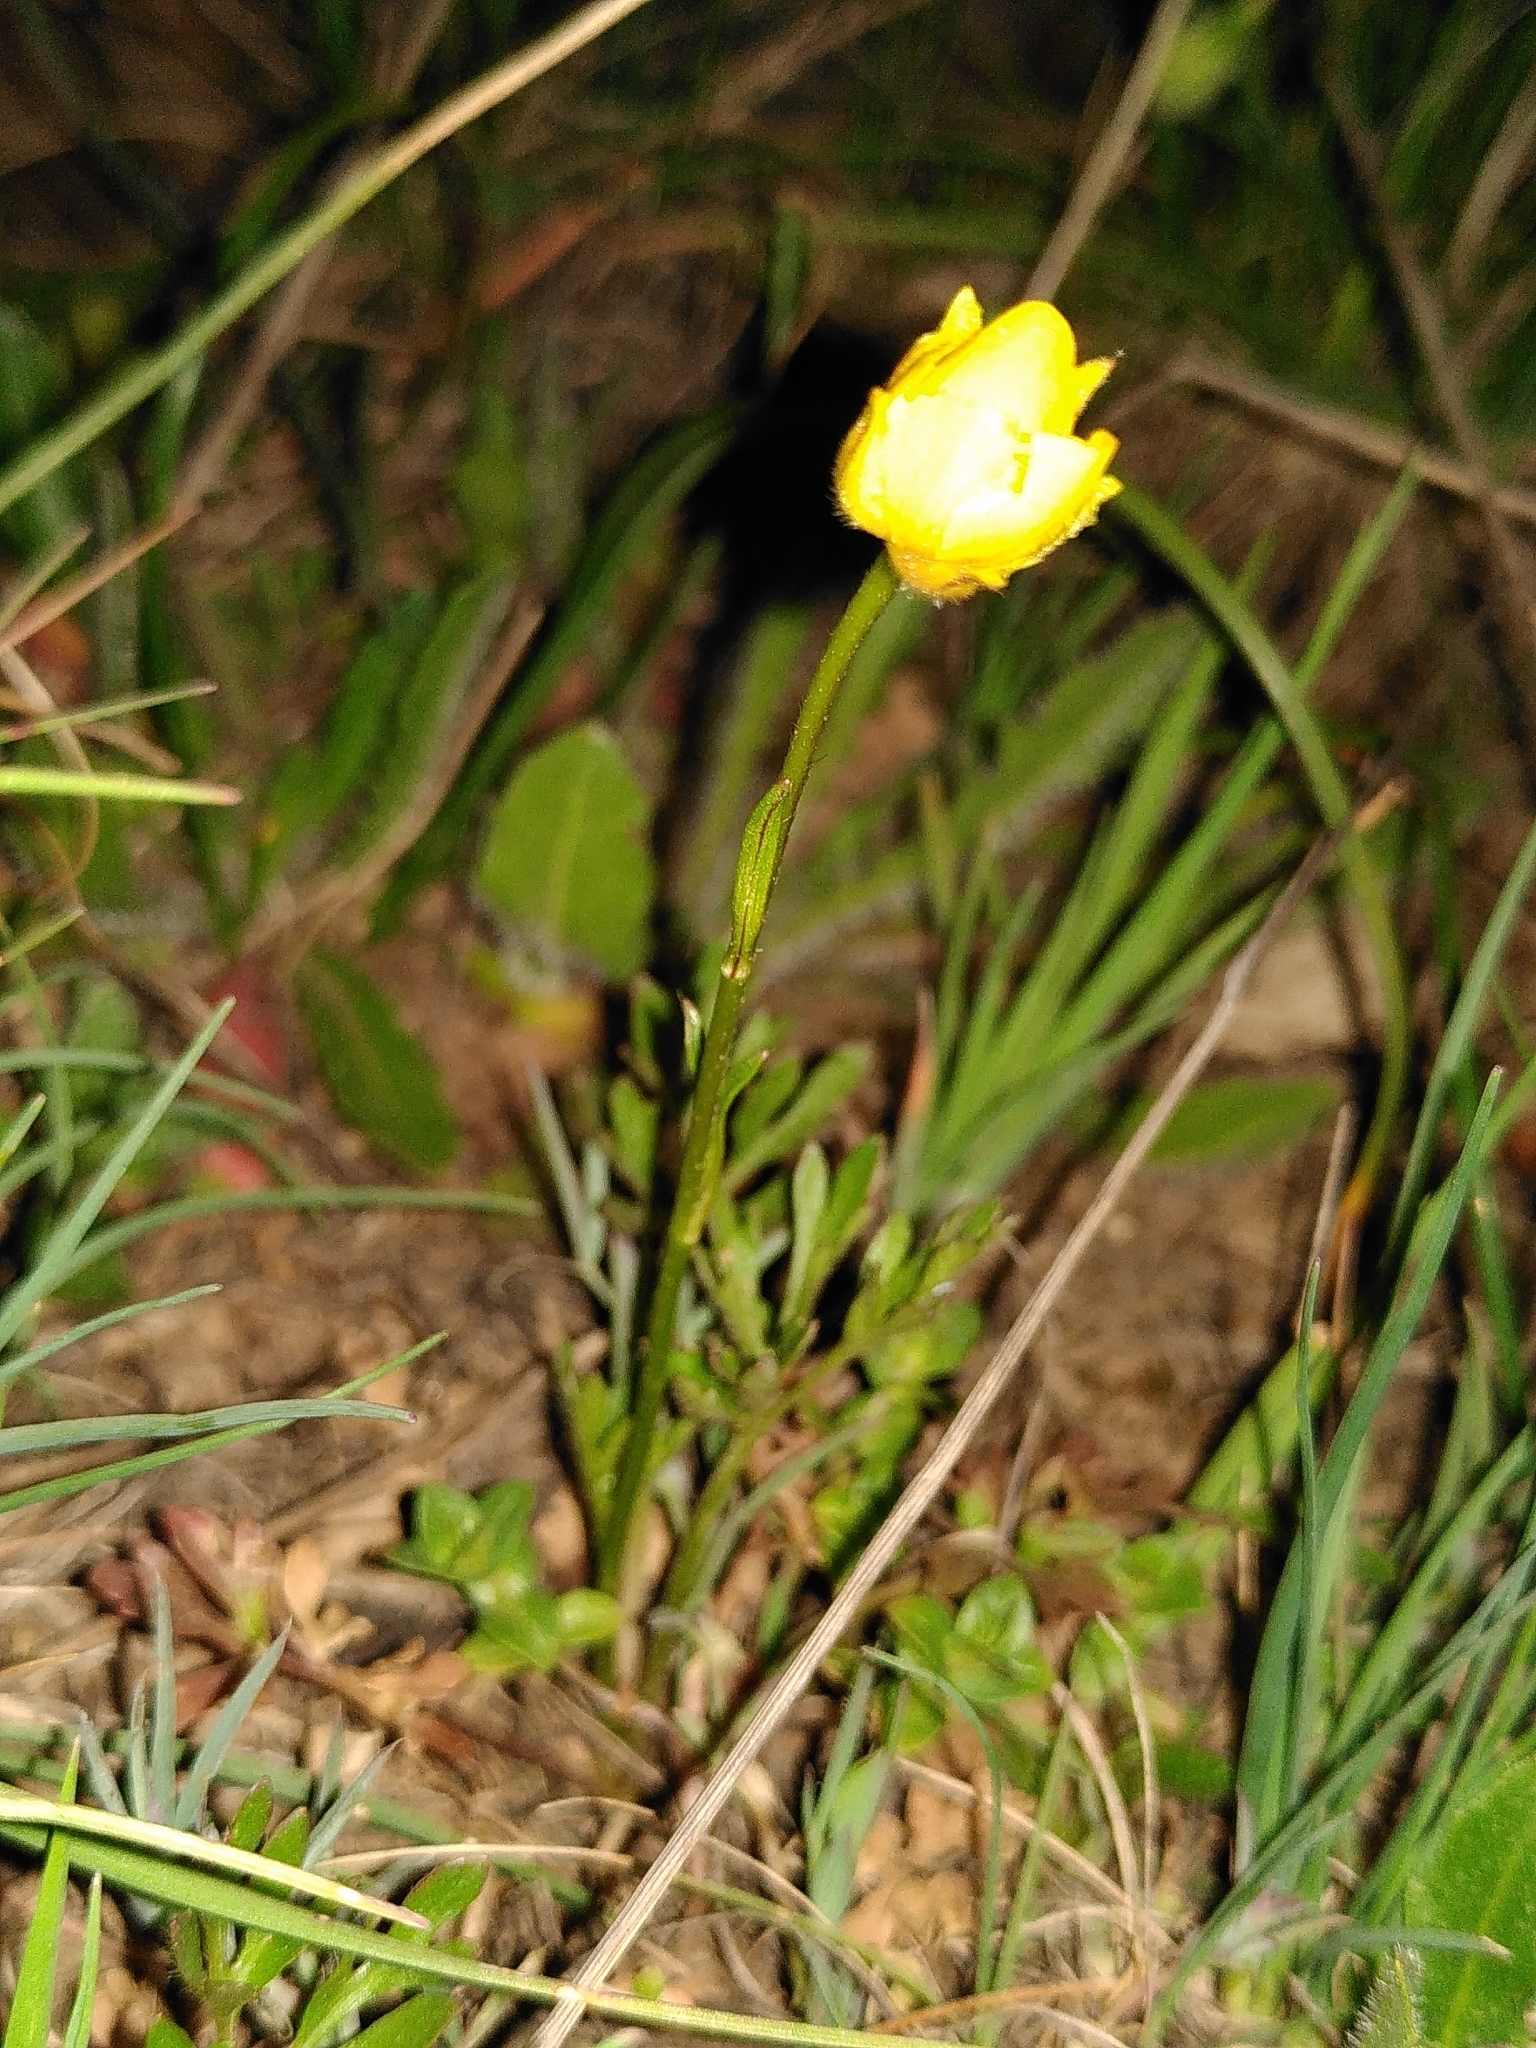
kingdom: Plantae
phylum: Tracheophyta
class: Magnoliopsida
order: Ranunculales
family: Ranunculaceae
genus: Ranunculus
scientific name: Ranunculus paludosus
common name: Jersey buttercup
